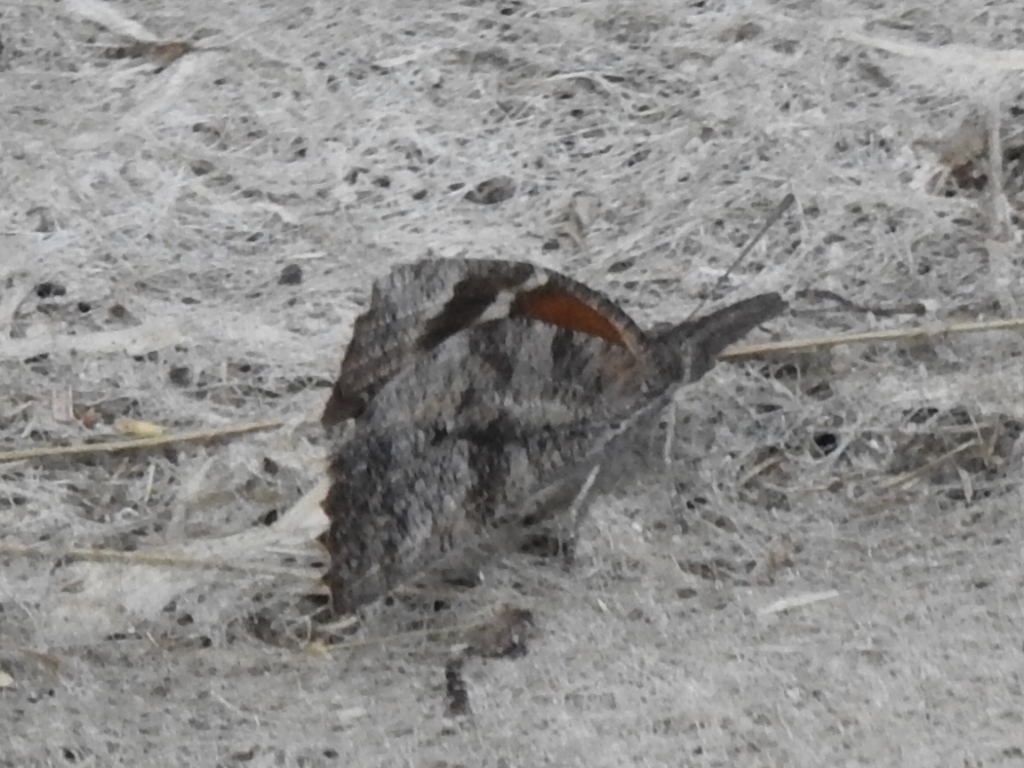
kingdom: Animalia
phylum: Arthropoda
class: Insecta
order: Lepidoptera
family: Nymphalidae
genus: Libytheana
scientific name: Libytheana carinenta
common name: American snout
